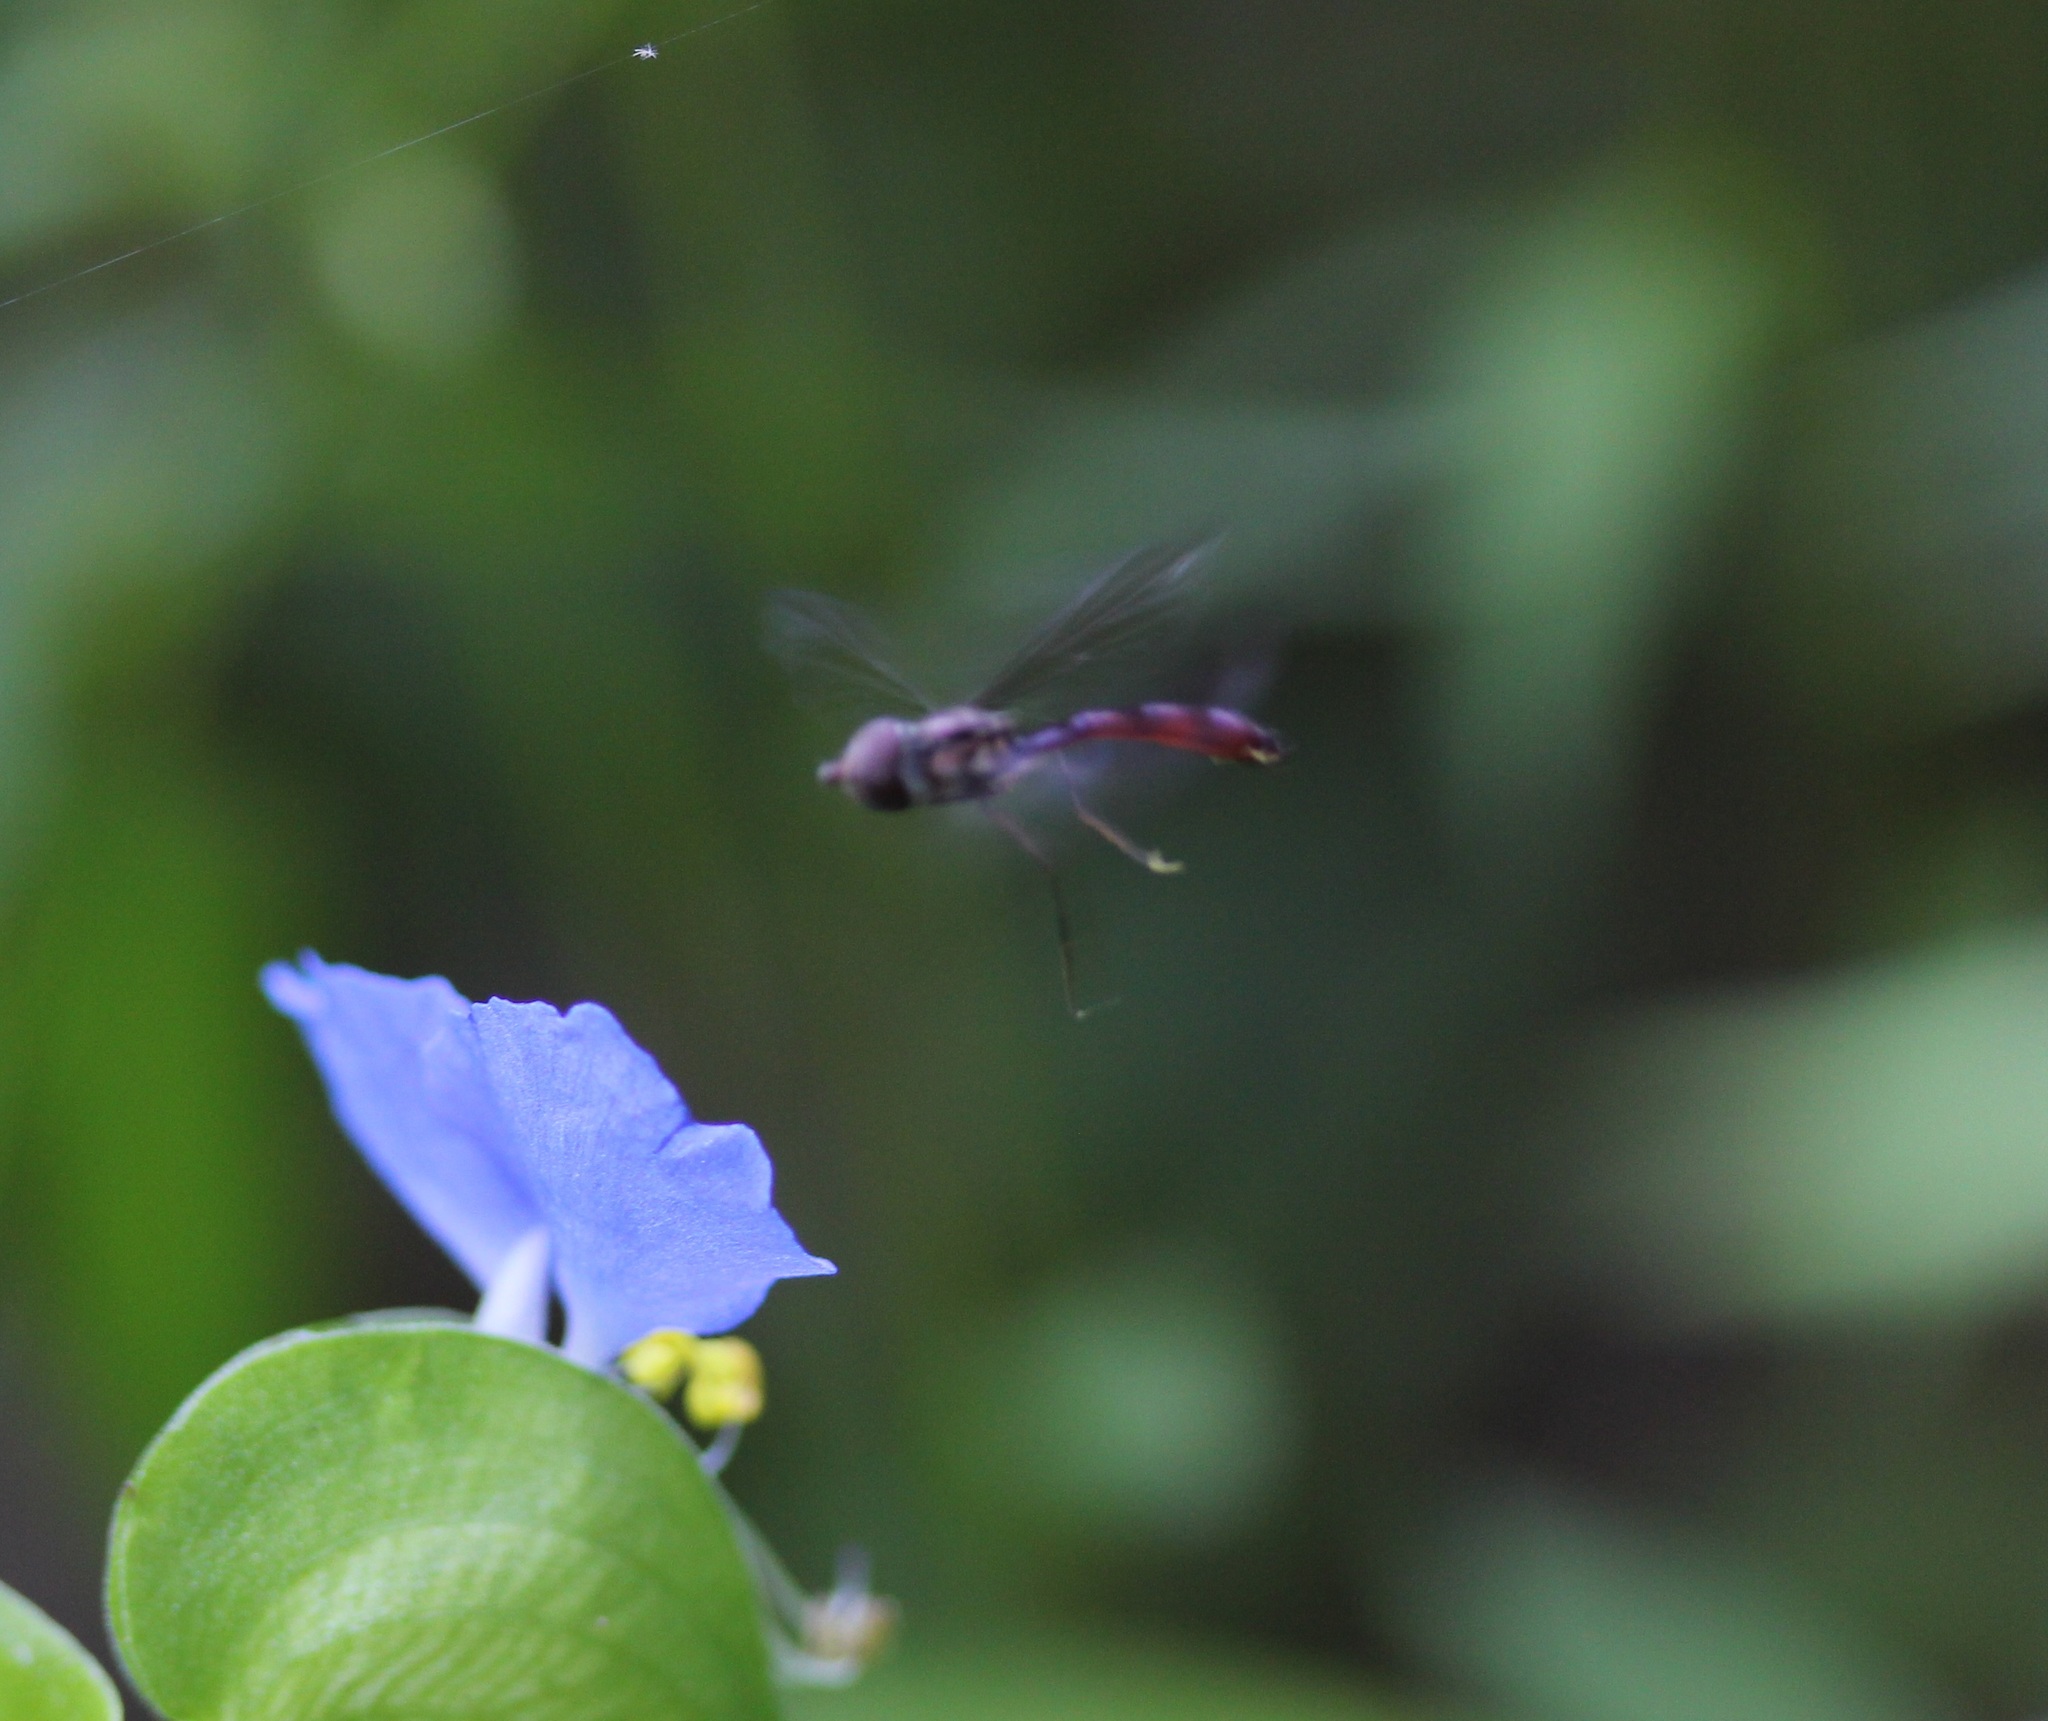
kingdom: Animalia
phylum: Arthropoda
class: Insecta
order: Diptera
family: Syrphidae
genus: Ocyptamus
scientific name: Ocyptamus fuscipennis
